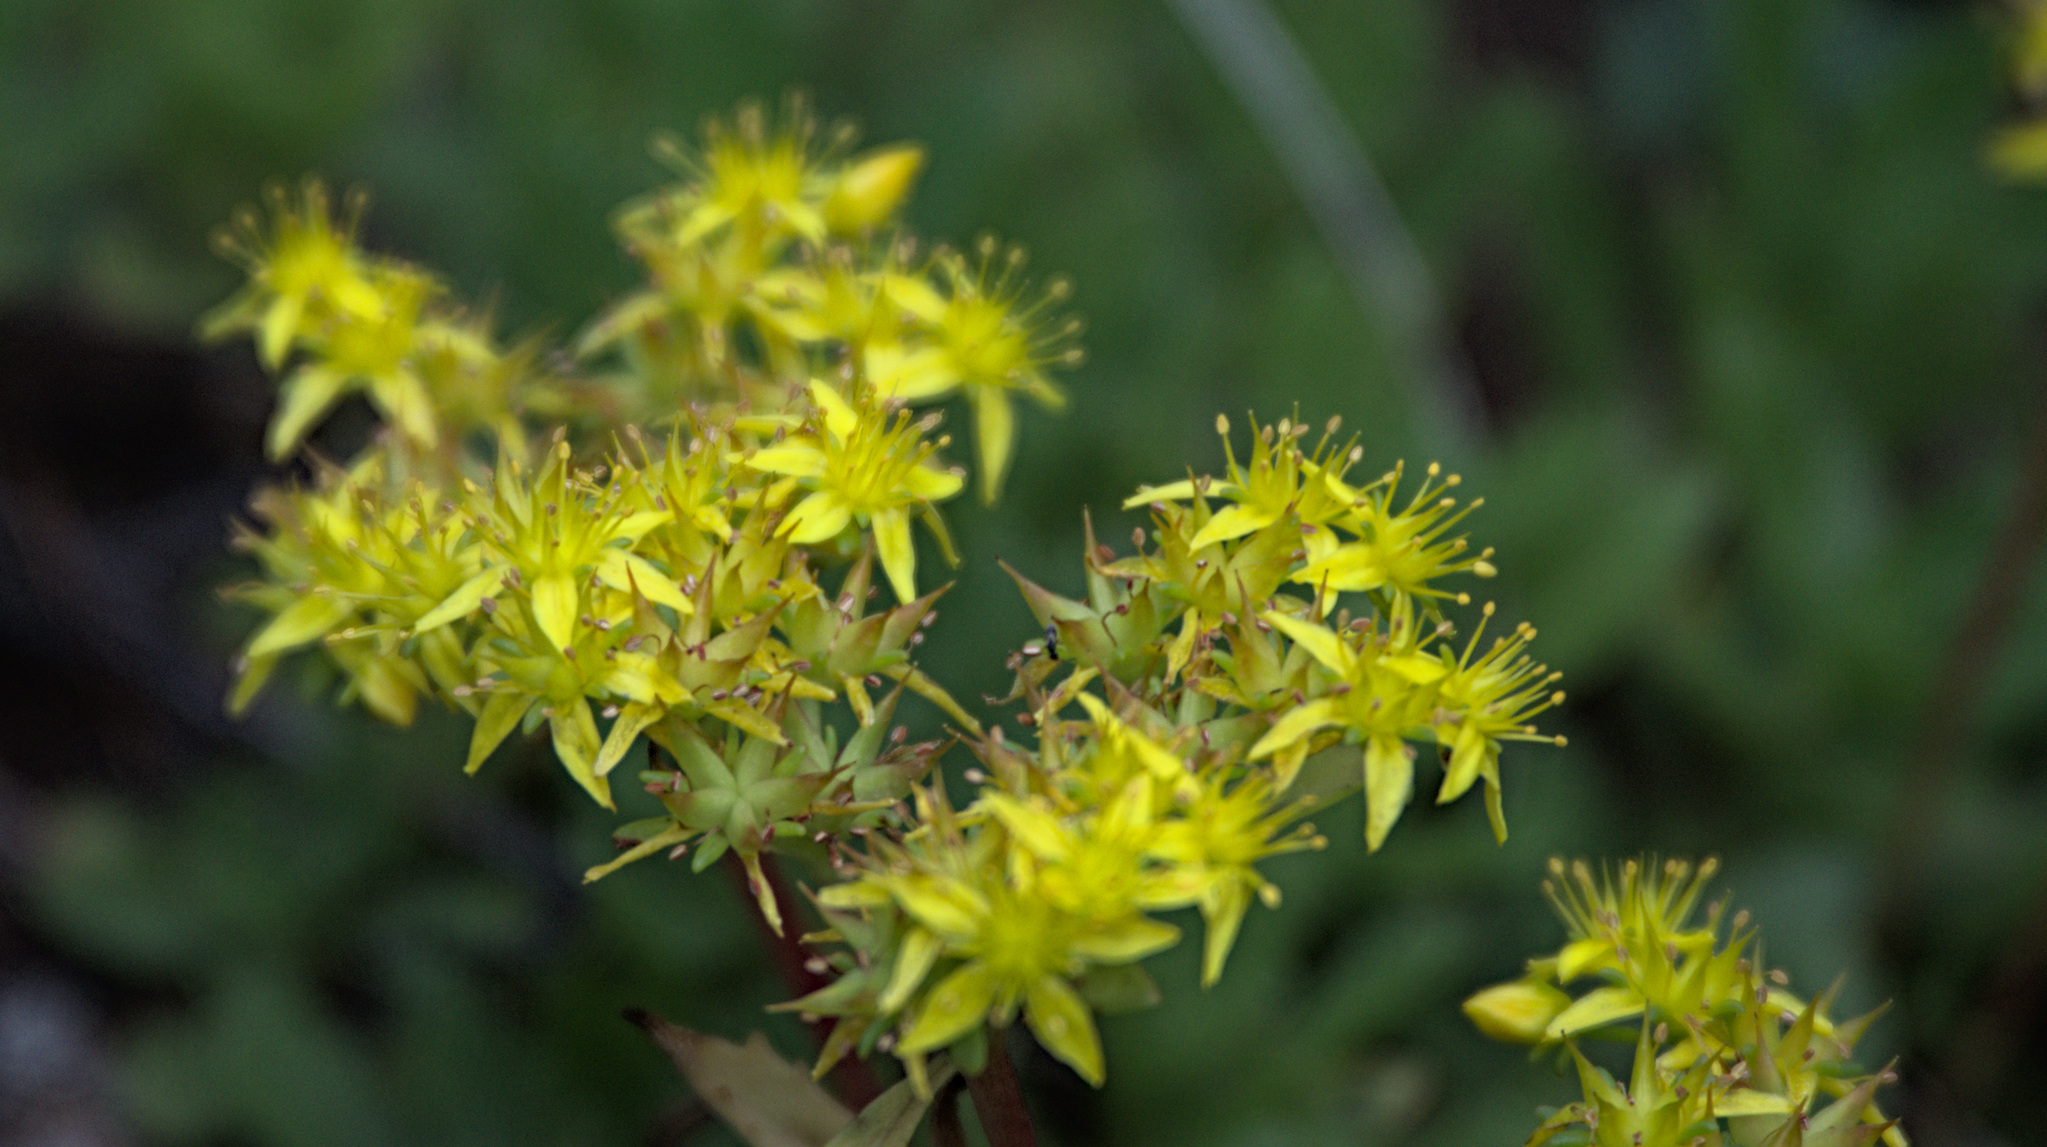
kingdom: Plantae
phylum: Tracheophyta
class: Magnoliopsida
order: Saxifragales
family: Crassulaceae
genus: Phedimus
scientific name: Phedimus hybridus
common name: Hybrid stonecrop
